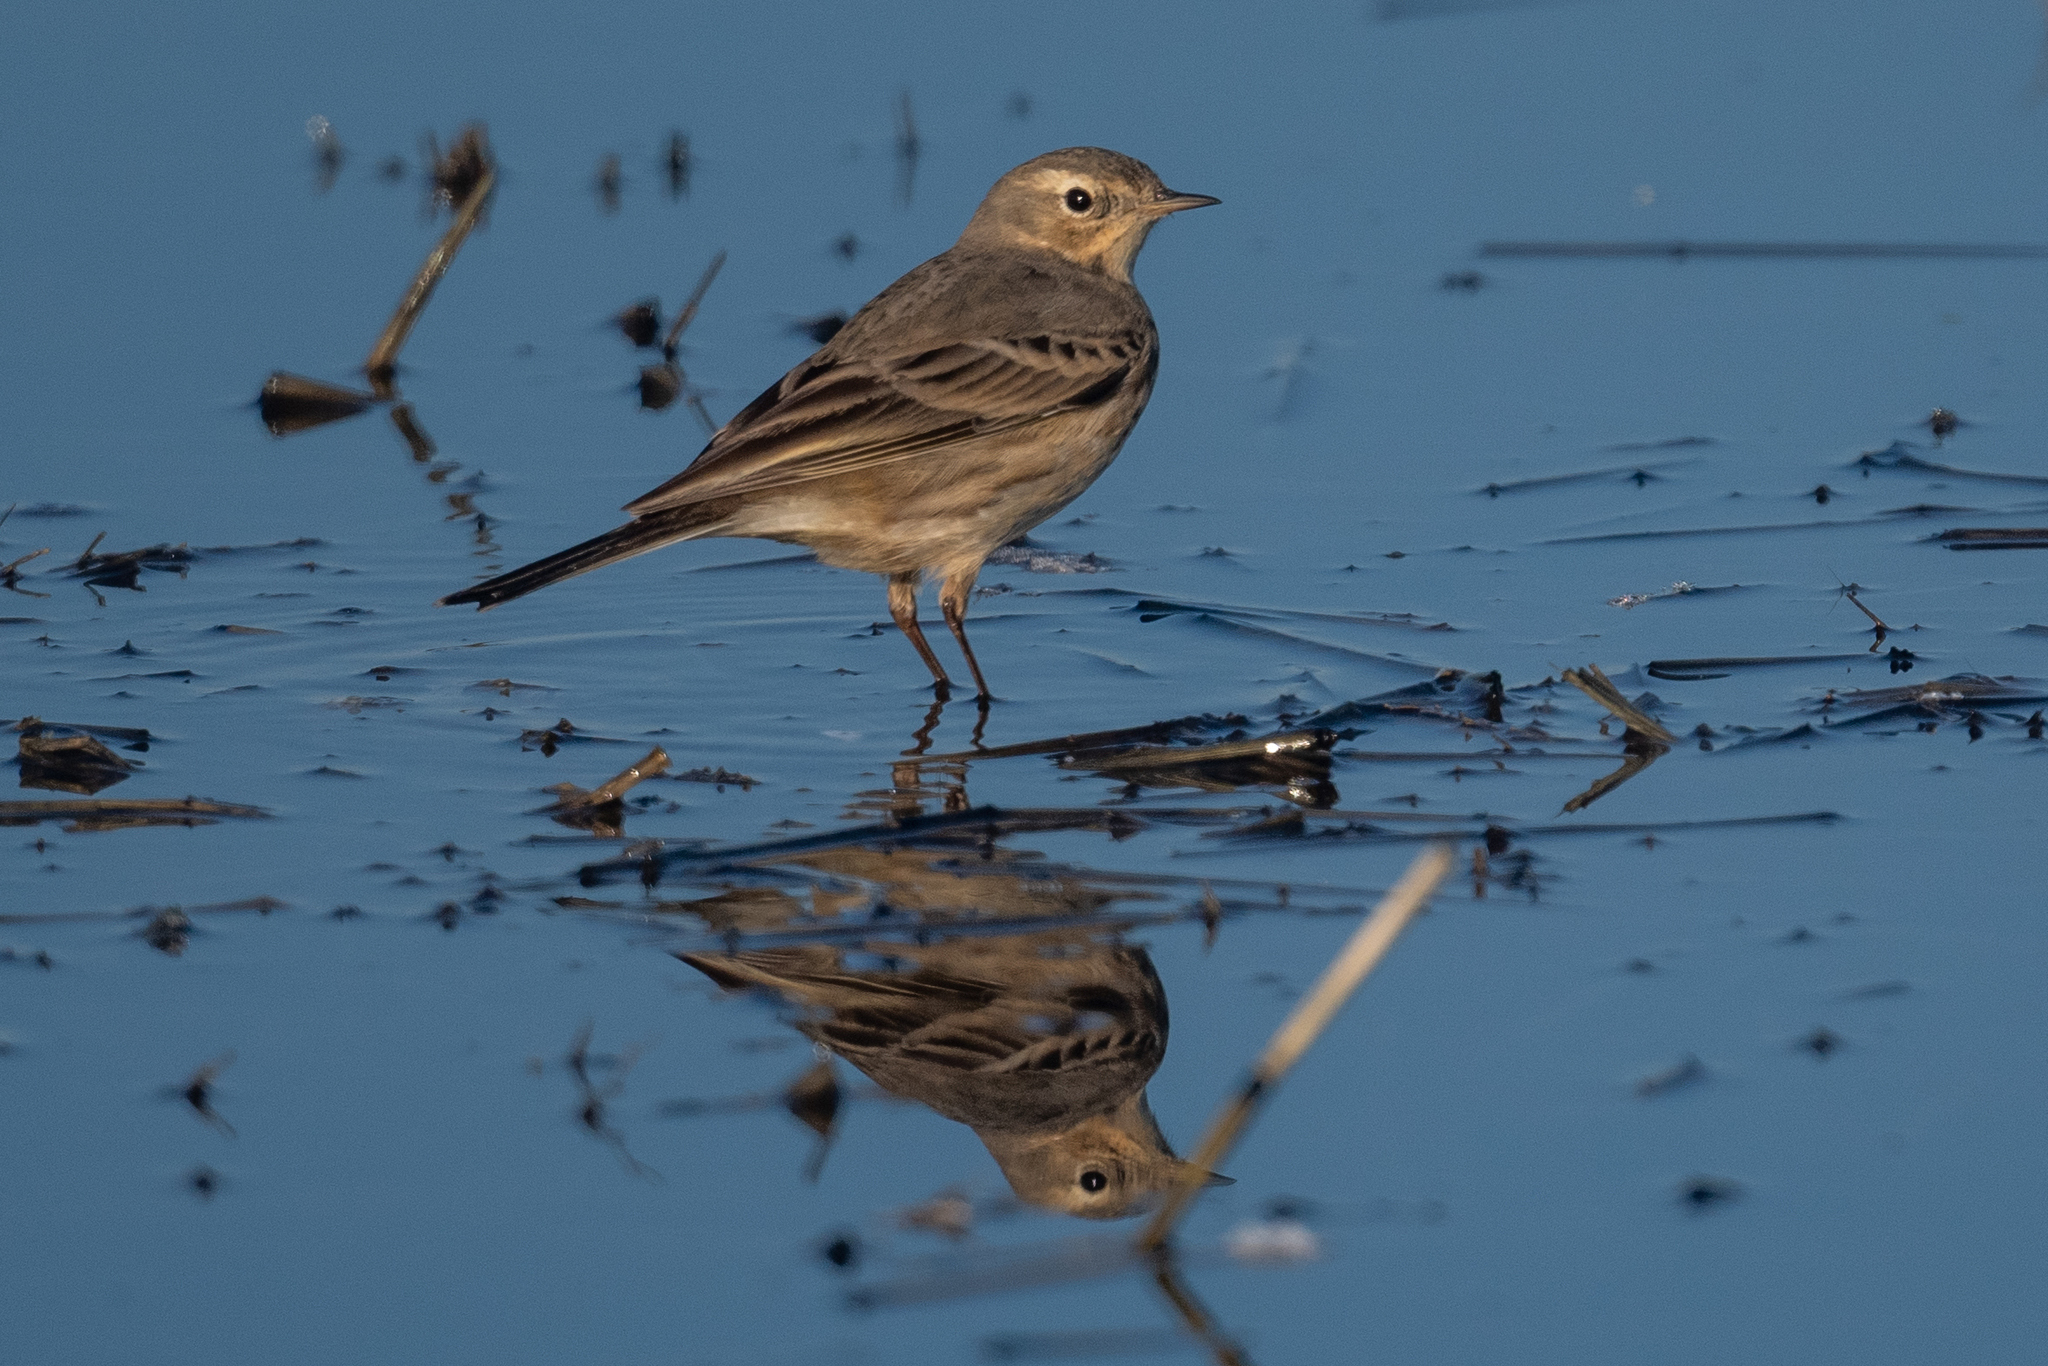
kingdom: Animalia
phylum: Chordata
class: Aves
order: Passeriformes
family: Motacillidae
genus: Anthus
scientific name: Anthus rubescens
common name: Buff-bellied pipit
